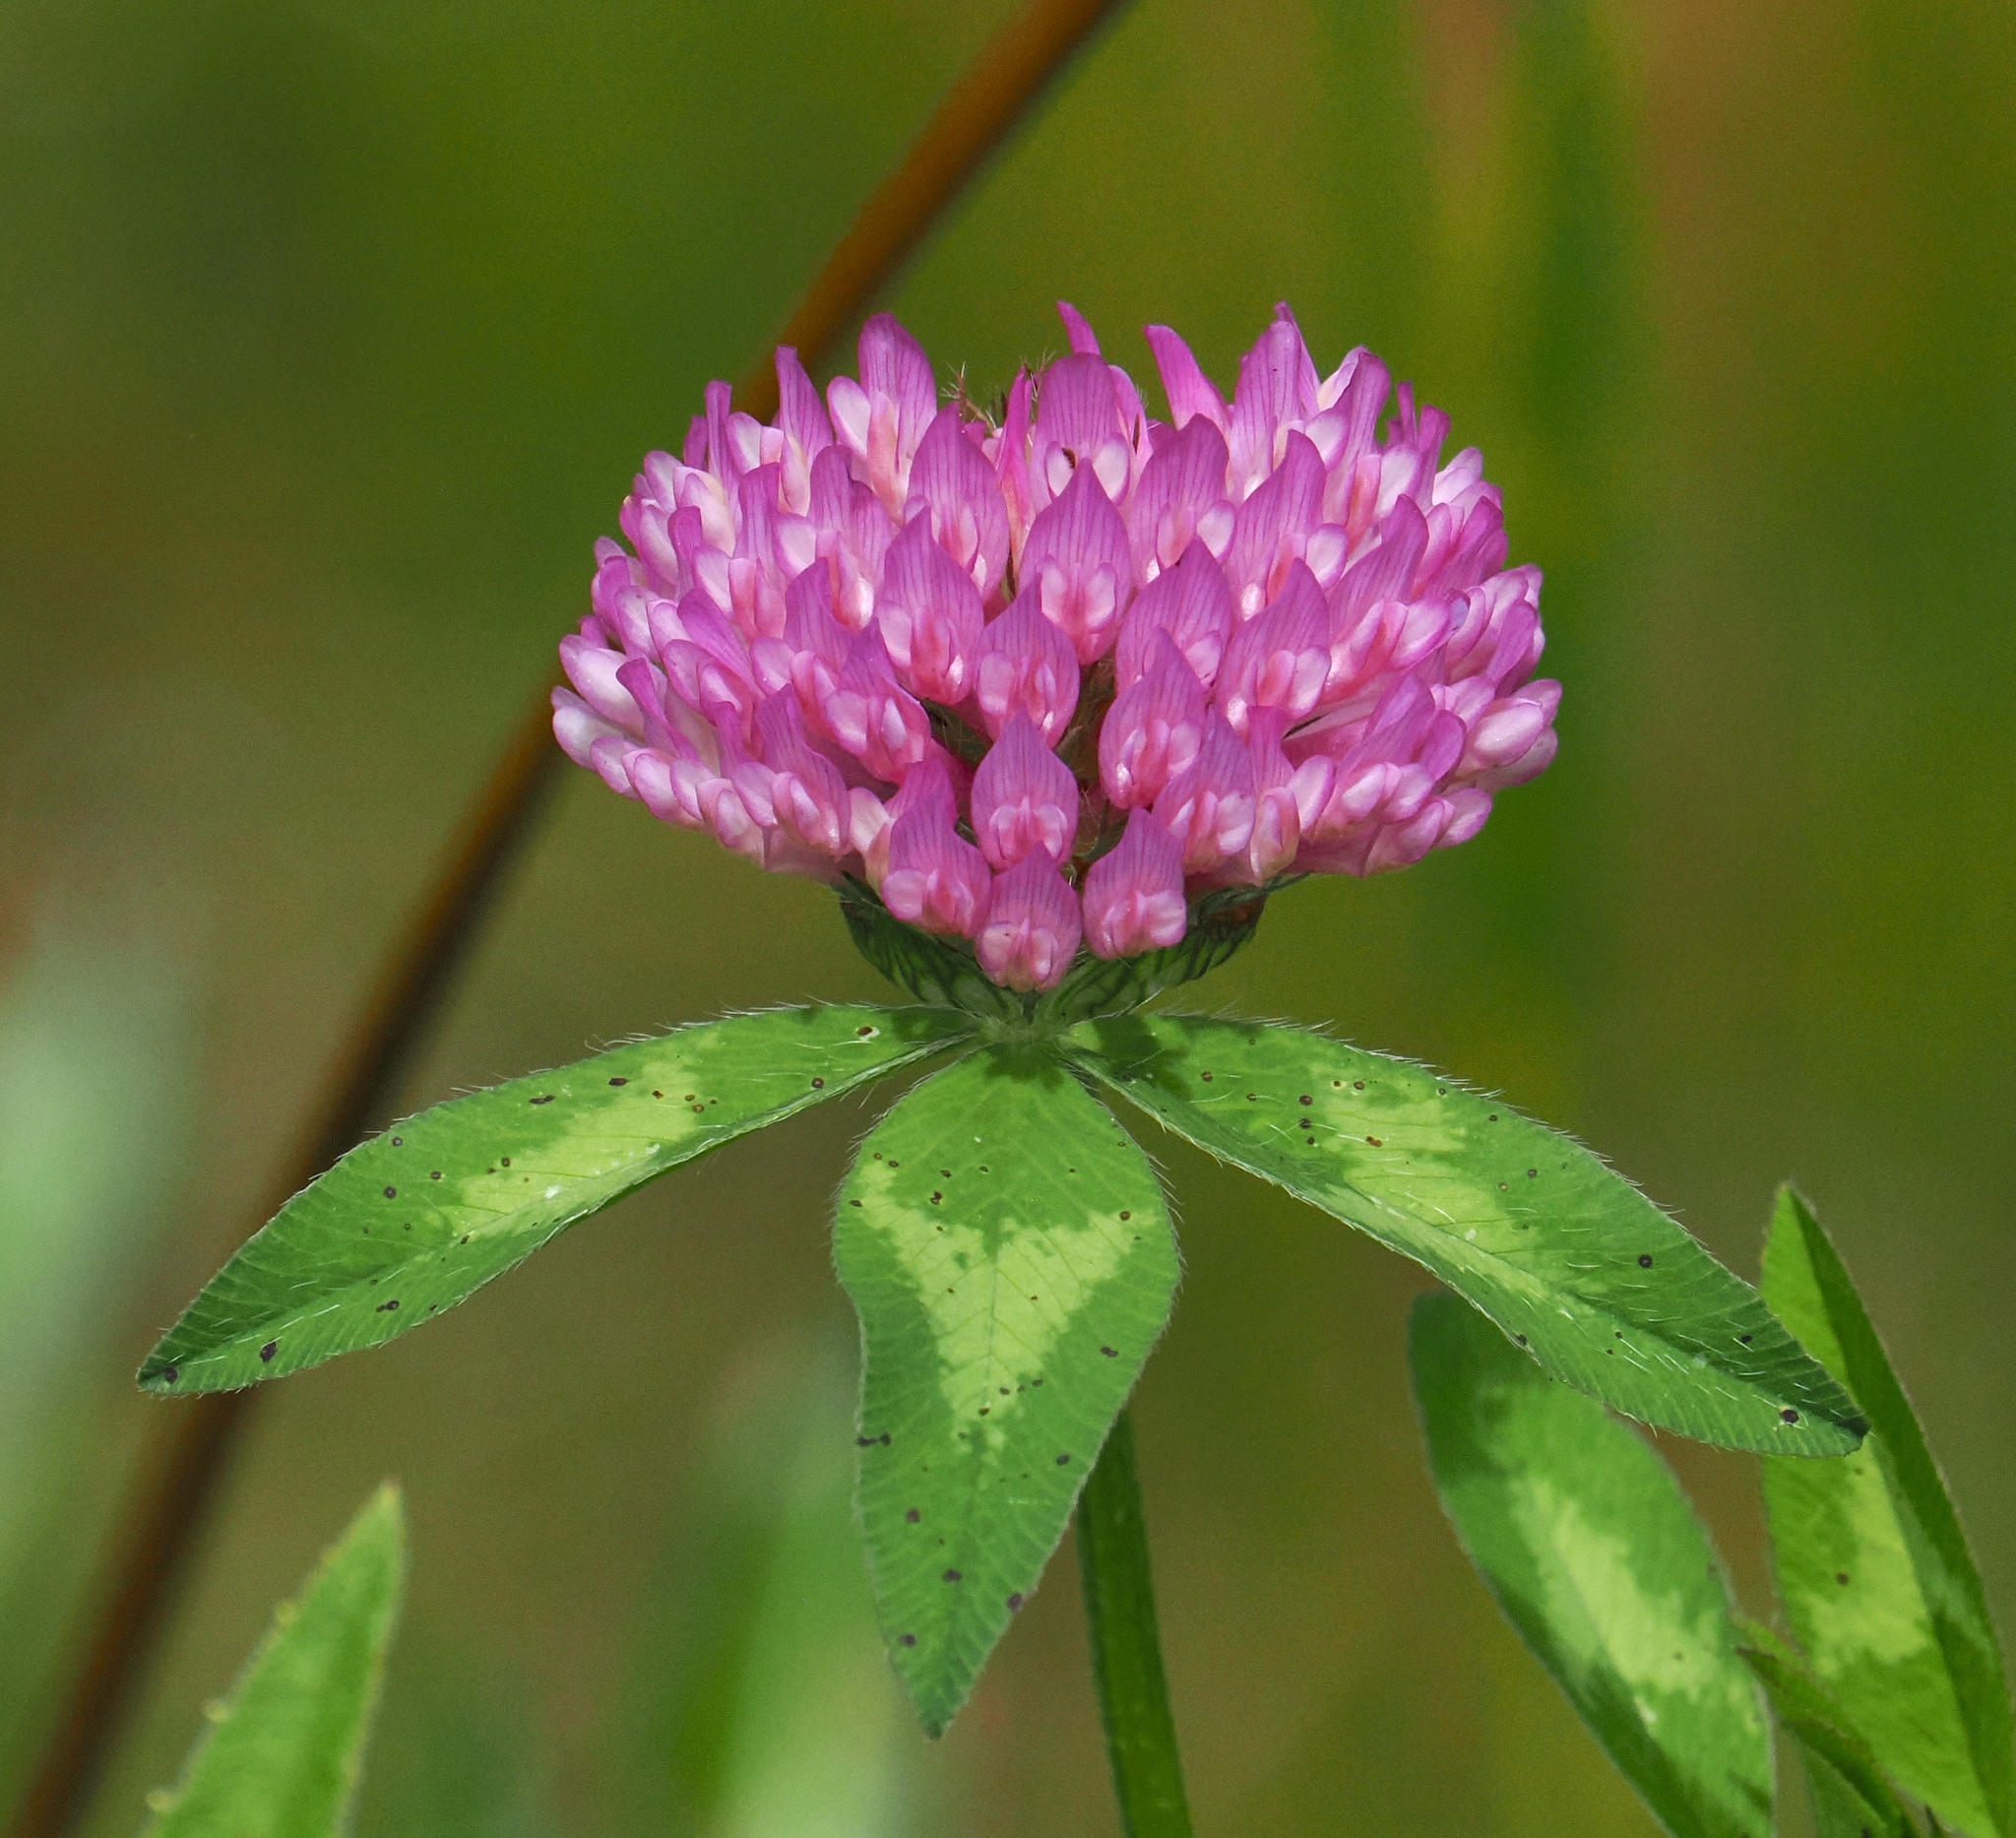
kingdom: Plantae
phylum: Tracheophyta
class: Magnoliopsida
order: Fabales
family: Fabaceae
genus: Trifolium
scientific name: Trifolium pratense
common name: Red clover
